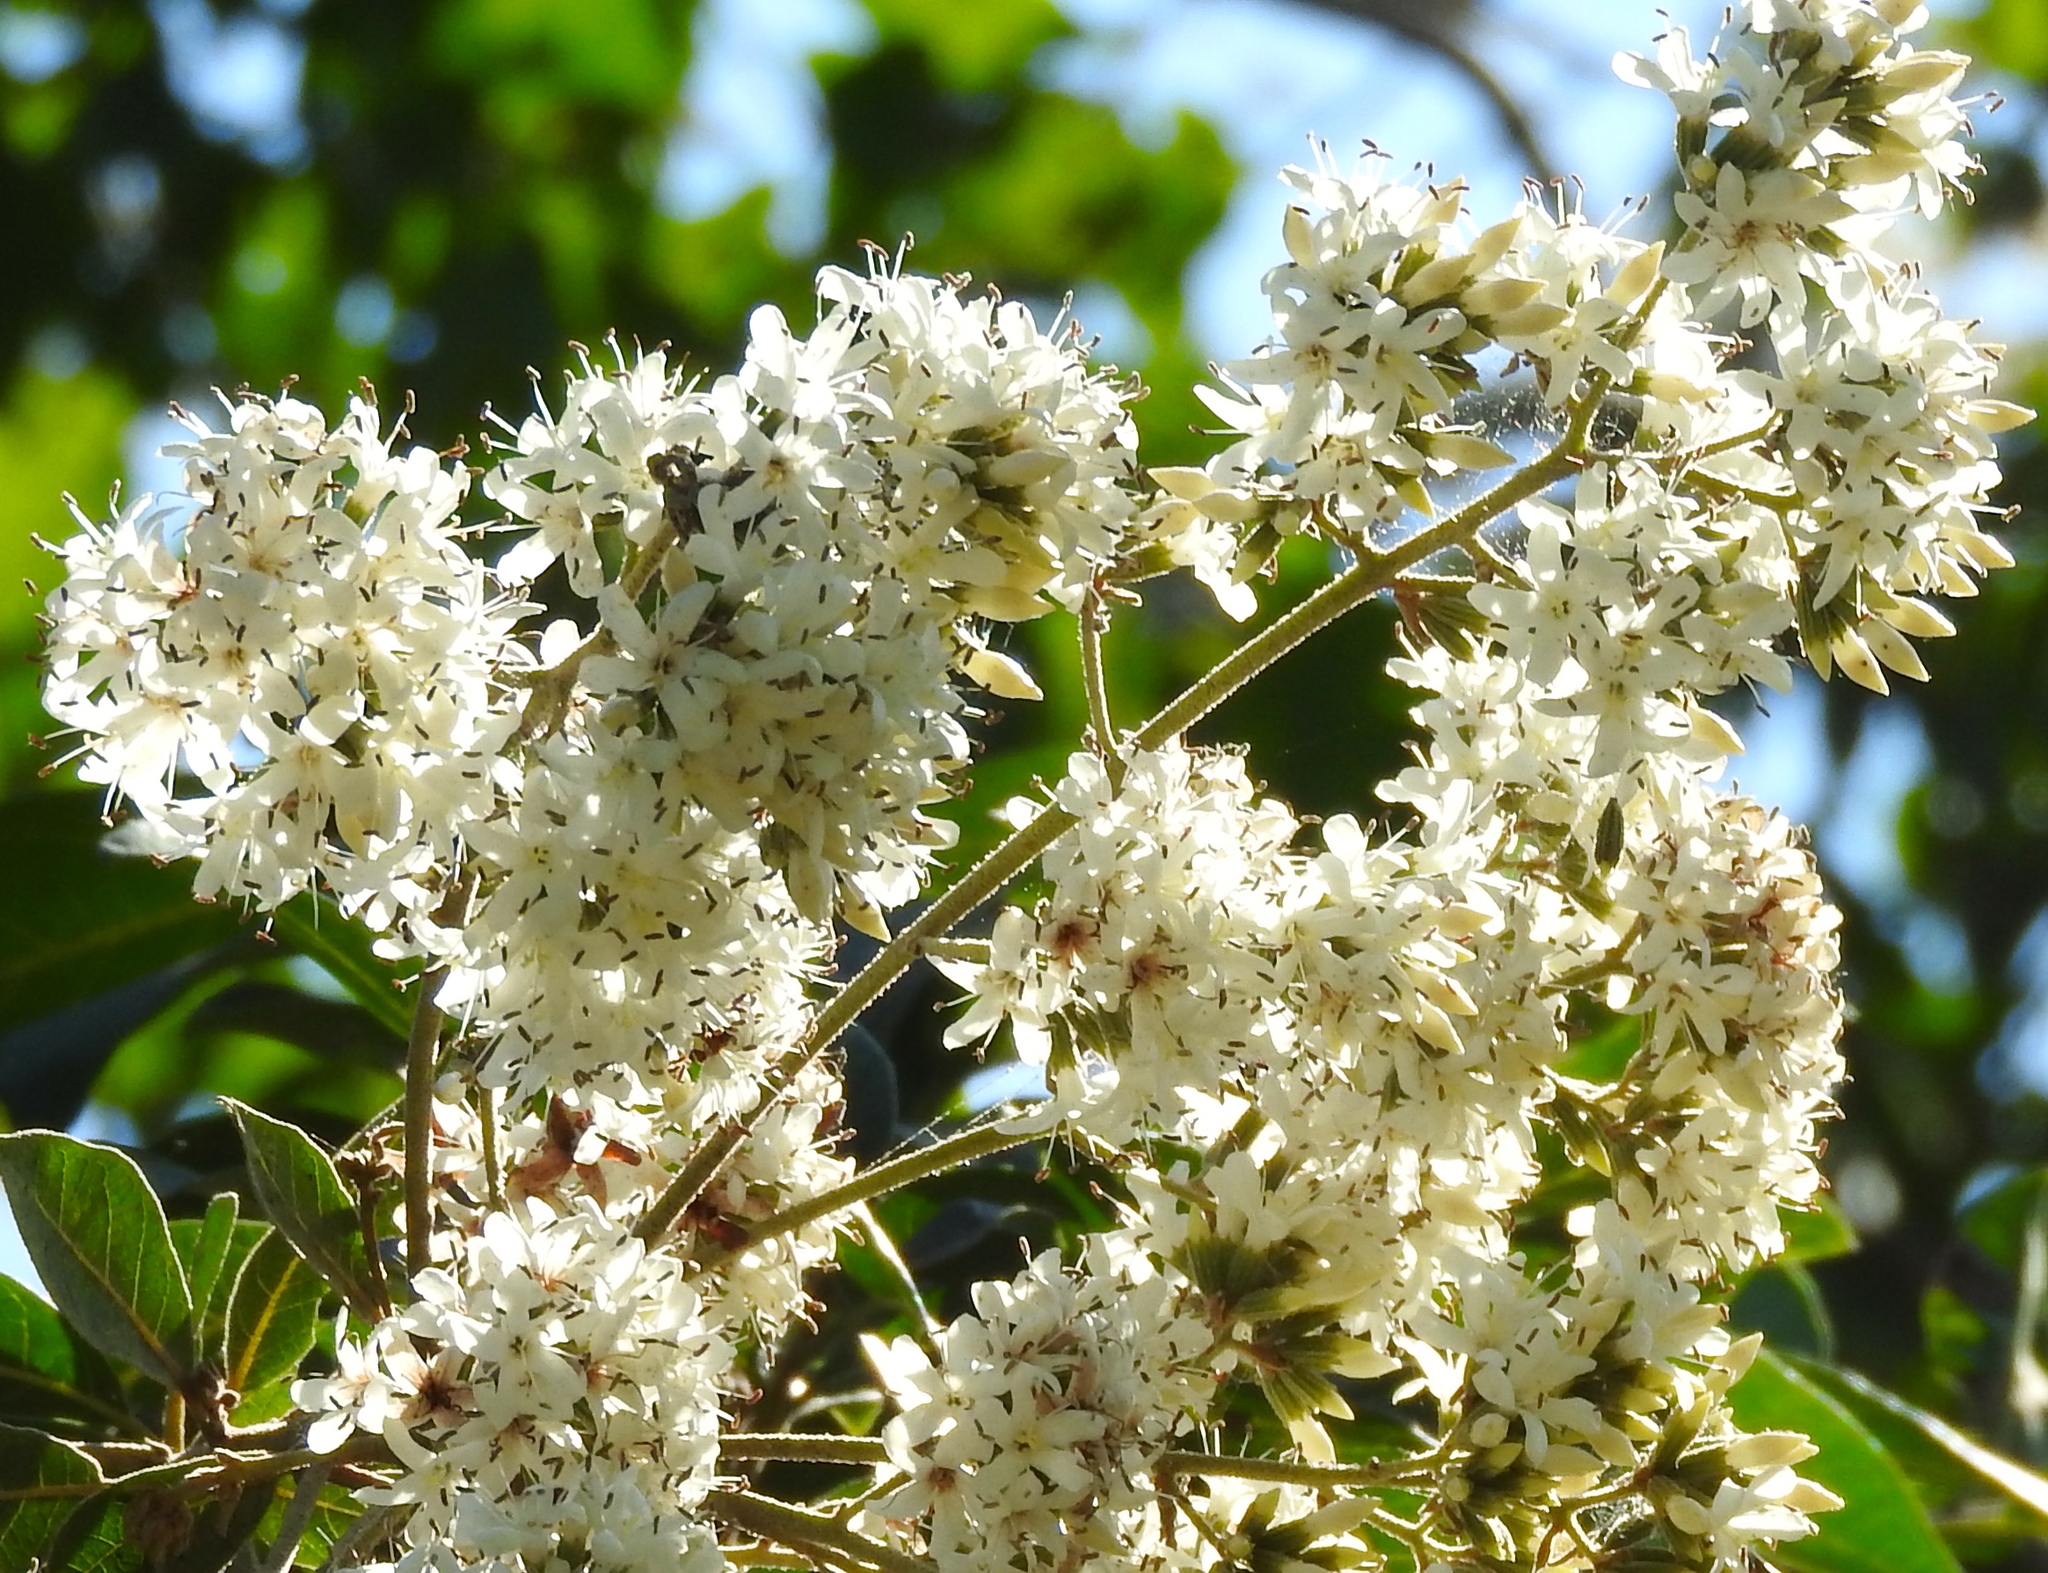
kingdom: Plantae
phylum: Tracheophyta
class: Magnoliopsida
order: Boraginales
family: Cordiaceae
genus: Cordia
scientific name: Cordia alliodora
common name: Spanish elm
